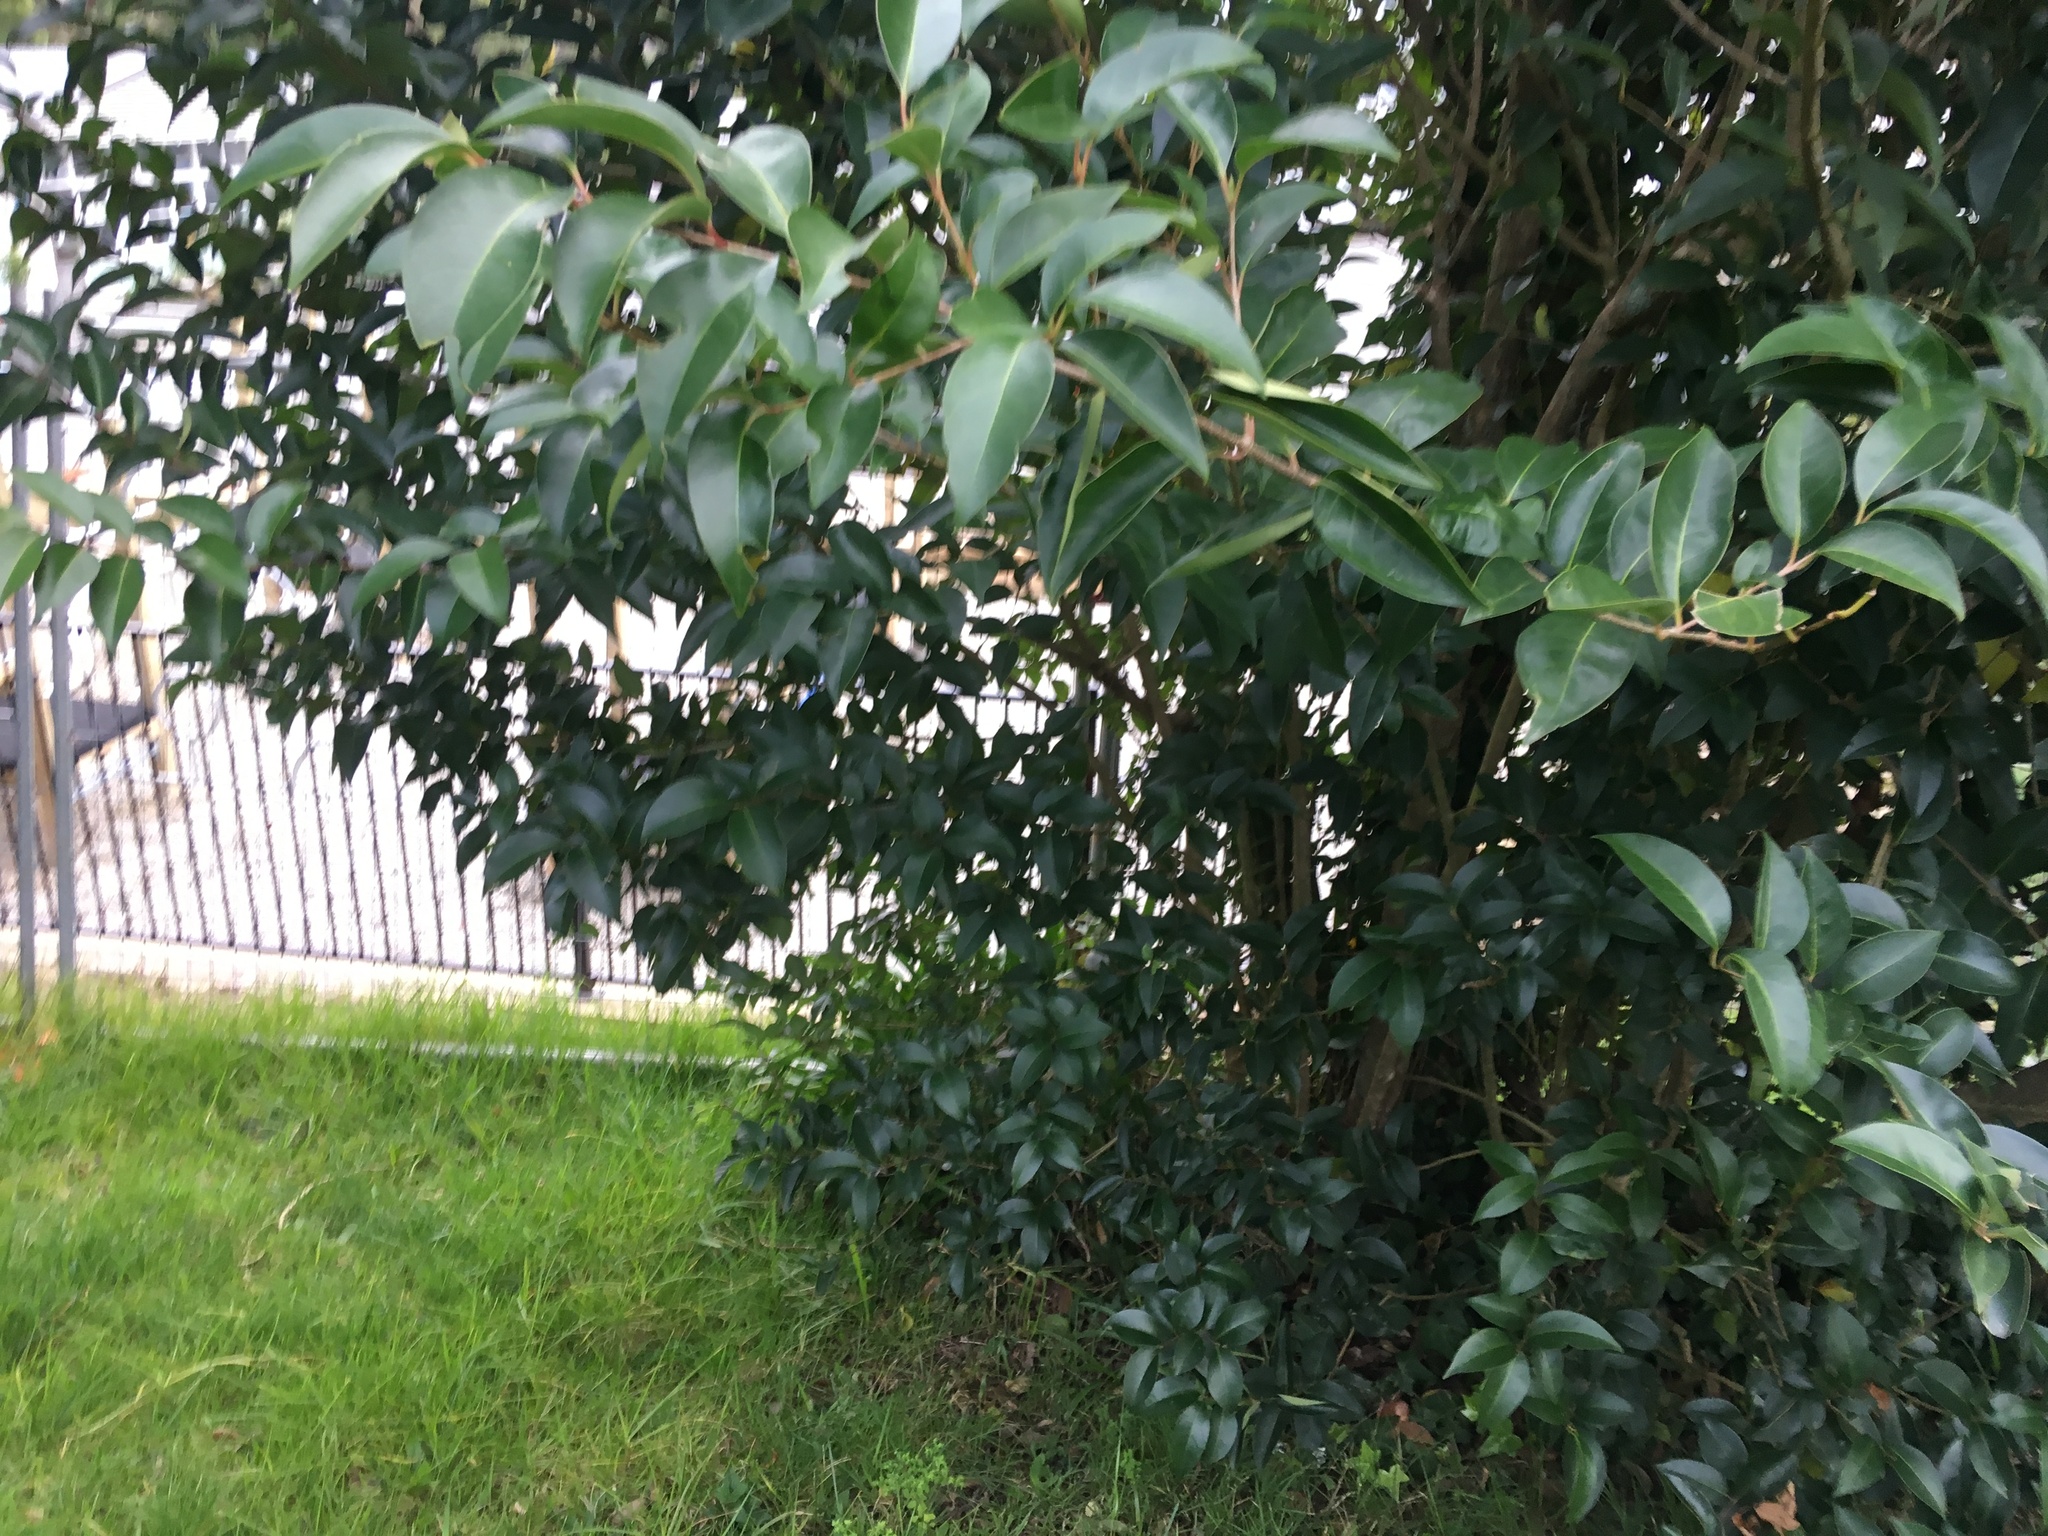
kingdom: Plantae
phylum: Tracheophyta
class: Magnoliopsida
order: Lamiales
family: Oleaceae
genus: Ligustrum
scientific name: Ligustrum lucidum
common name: Glossy privet
